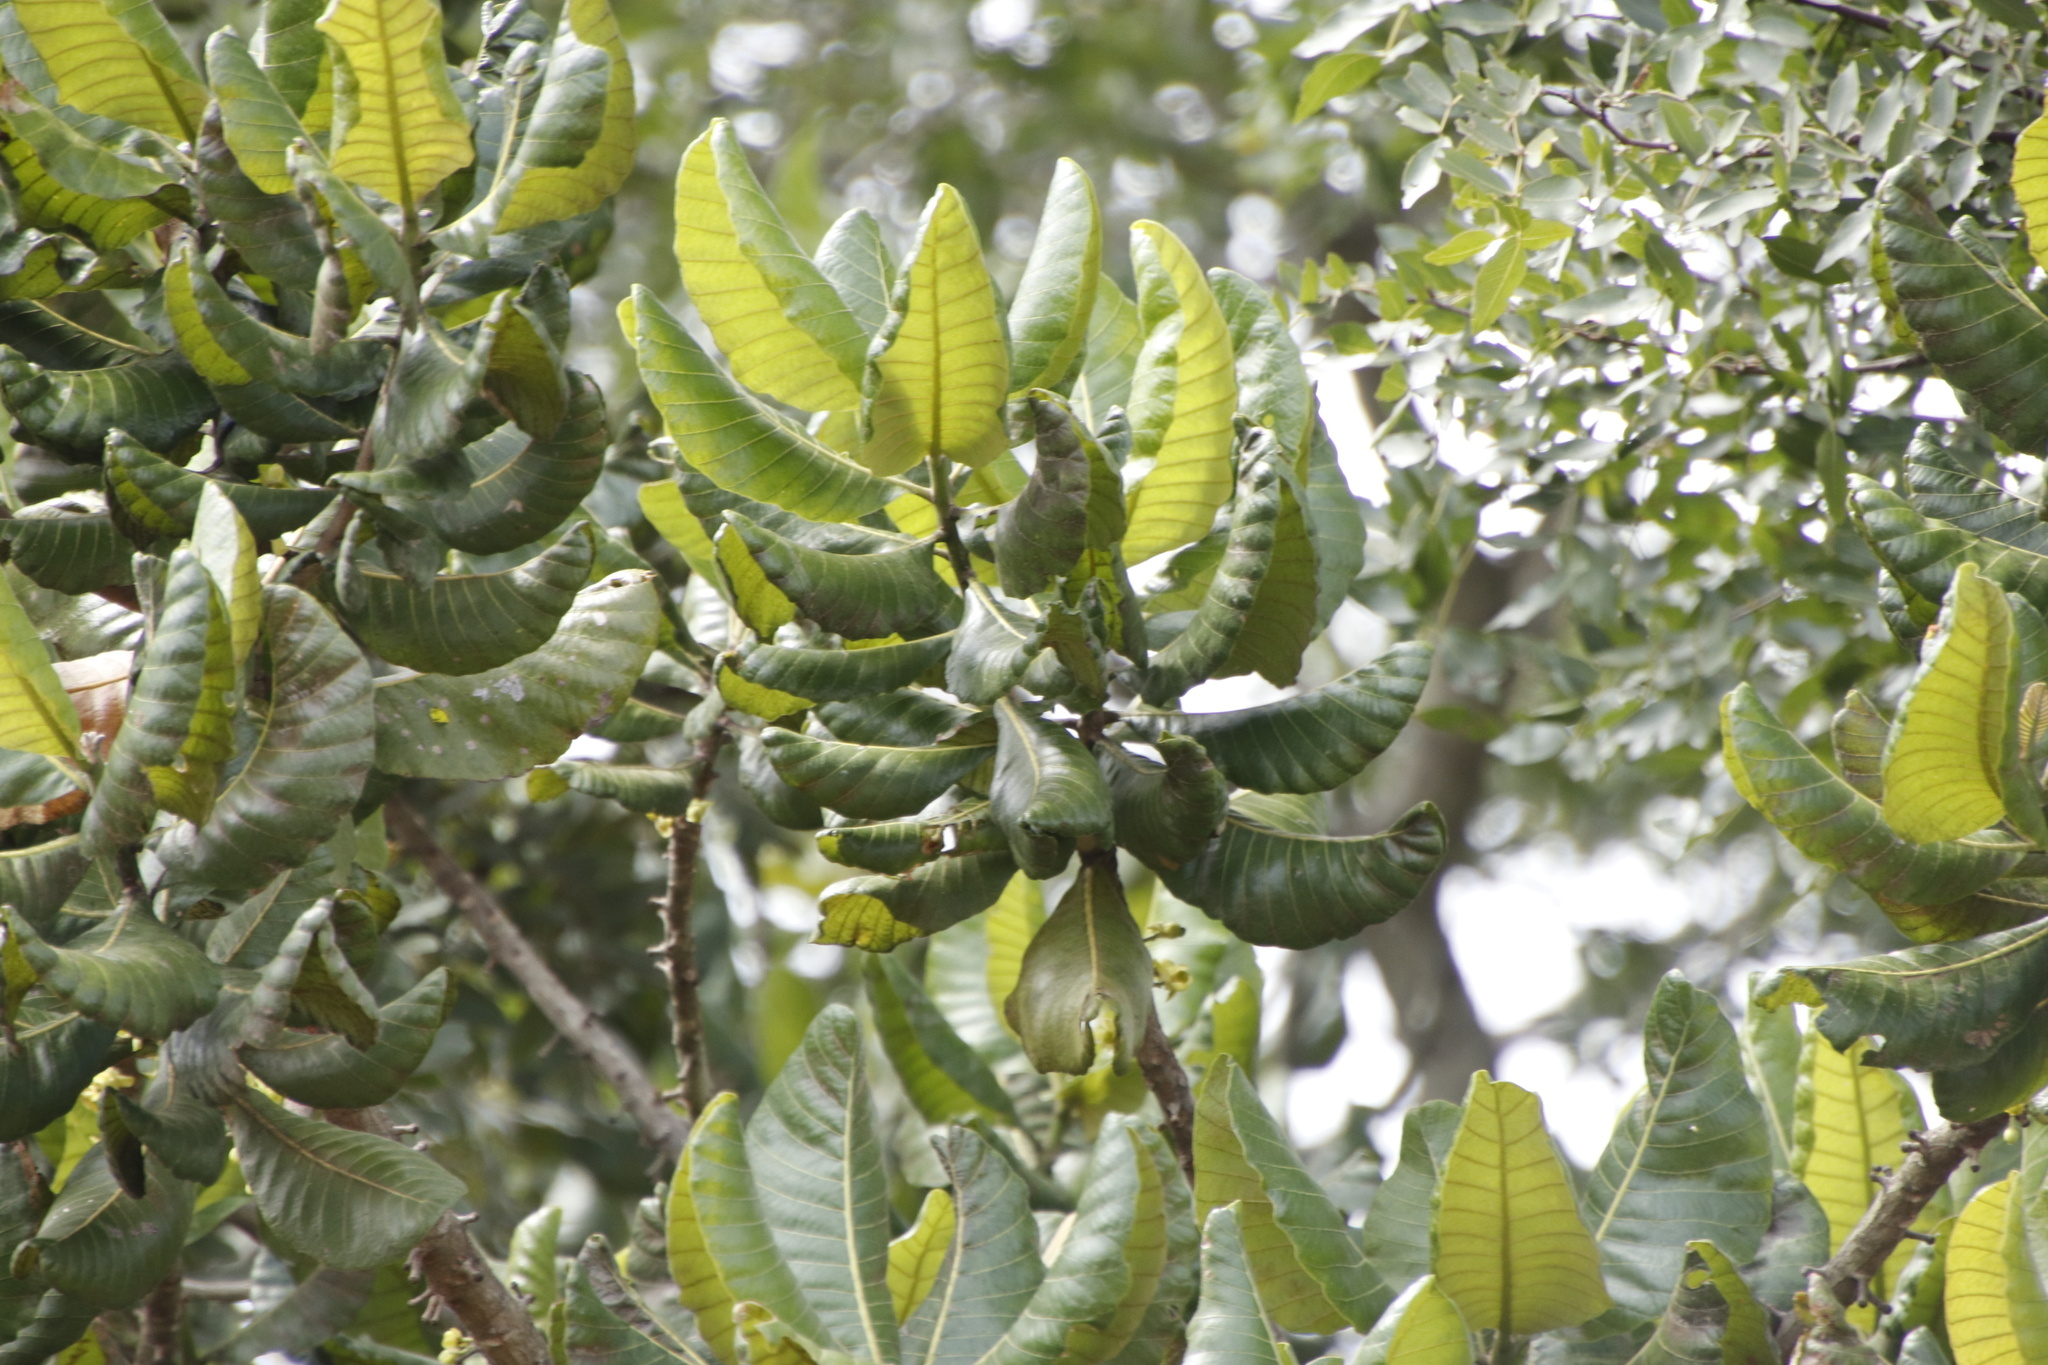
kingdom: Plantae
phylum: Tracheophyta
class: Magnoliopsida
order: Malpighiales
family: Phyllanthaceae
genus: Uapaca
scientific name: Uapaca kirkiana
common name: Wild loquat
